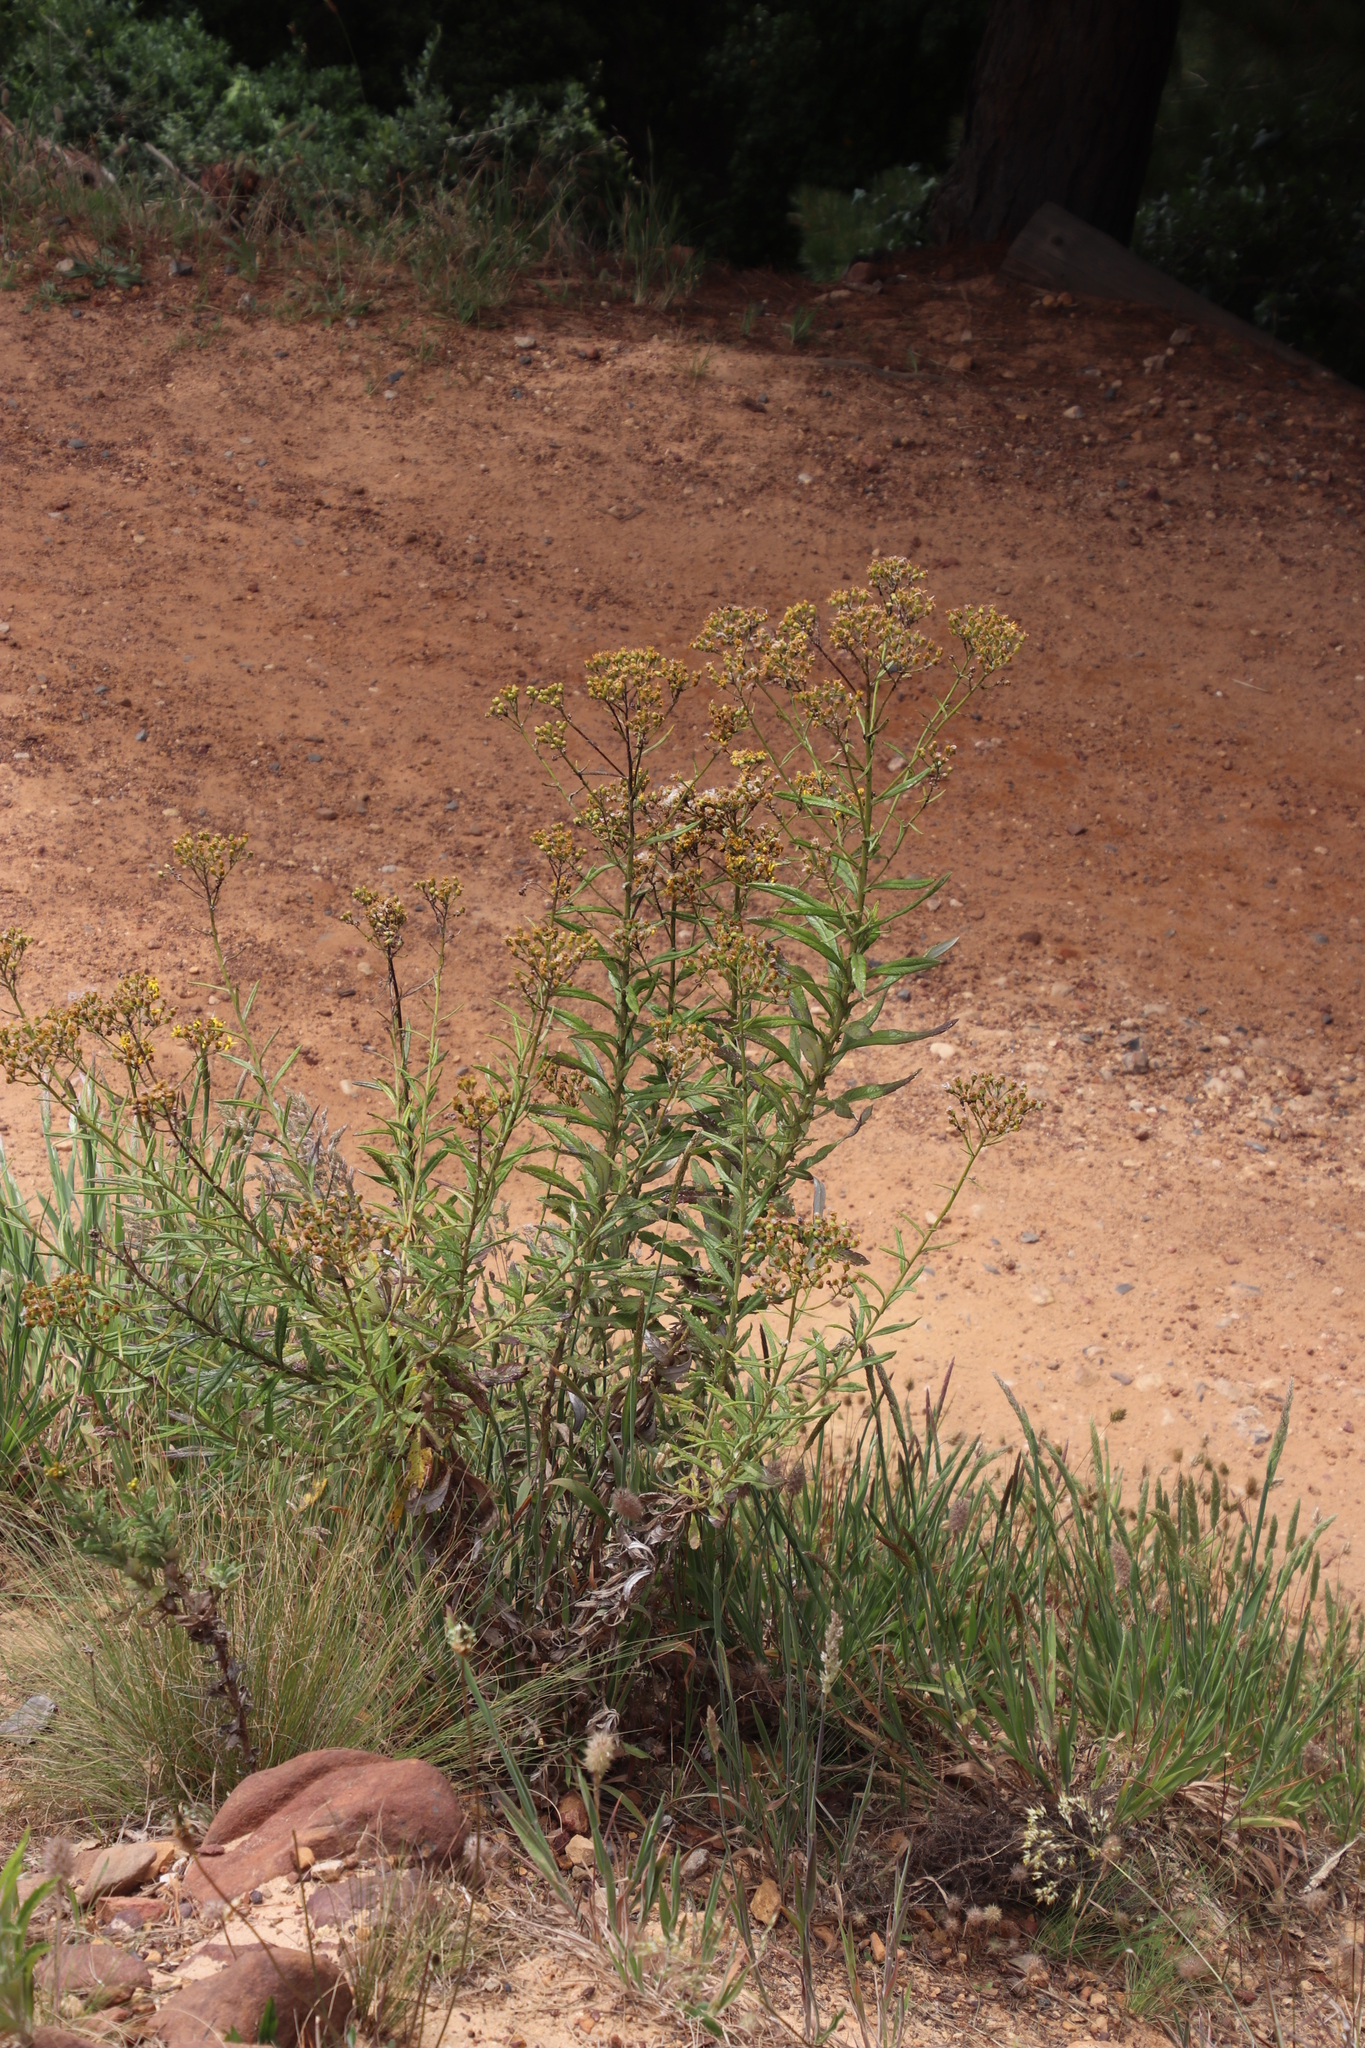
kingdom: Plantae
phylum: Tracheophyta
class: Magnoliopsida
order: Asterales
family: Asteraceae
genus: Senecio
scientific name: Senecio pterophorus
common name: Shoddy ragwort
